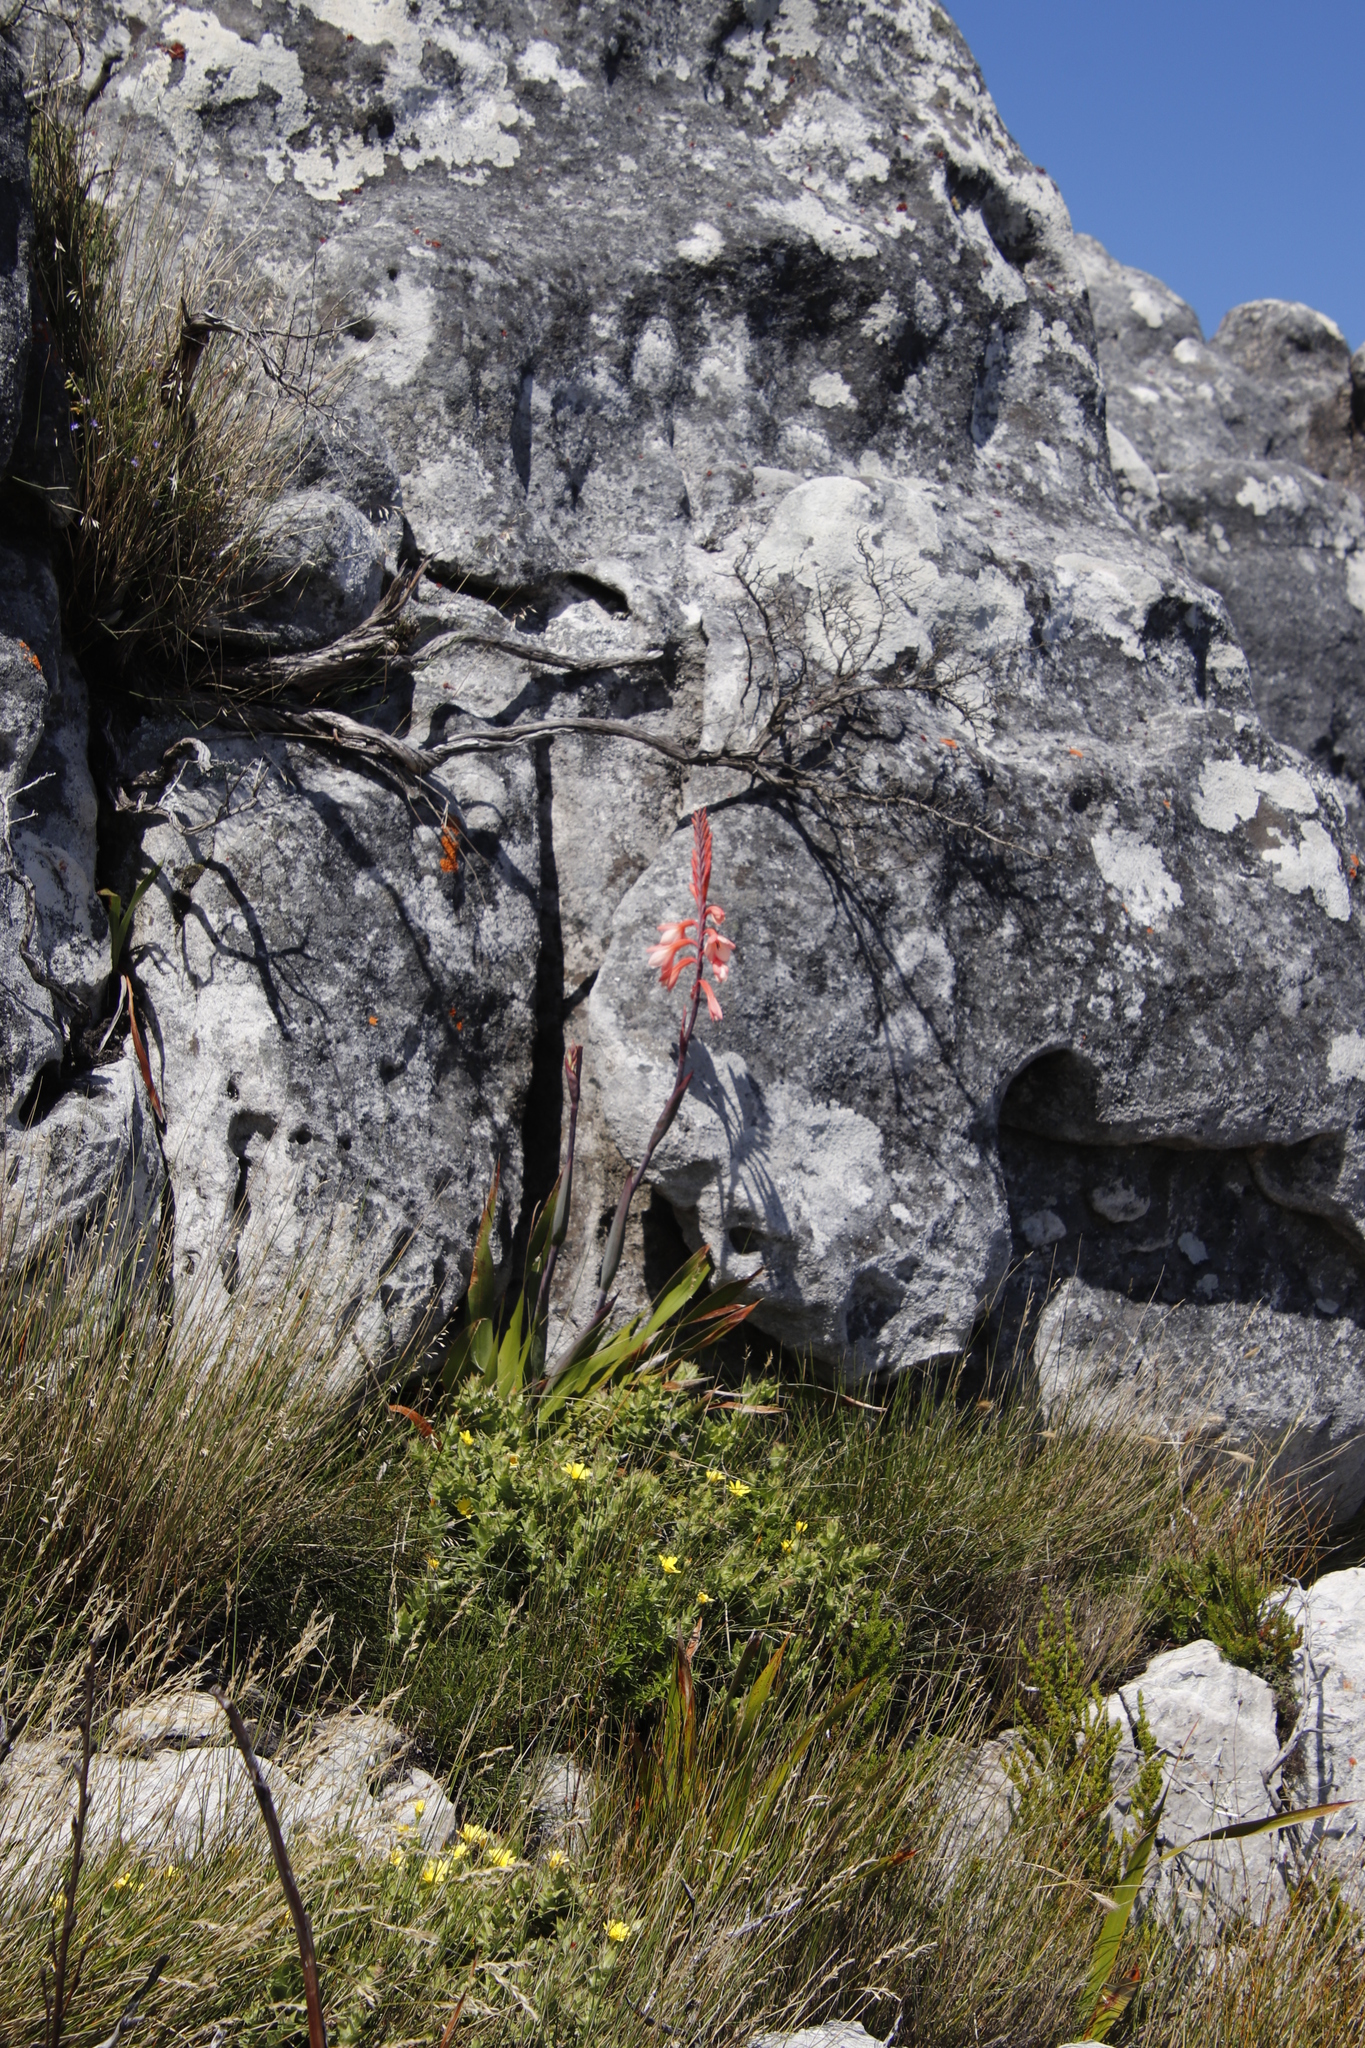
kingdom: Plantae
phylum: Tracheophyta
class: Liliopsida
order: Asparagales
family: Iridaceae
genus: Watsonia
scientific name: Watsonia tabularis
